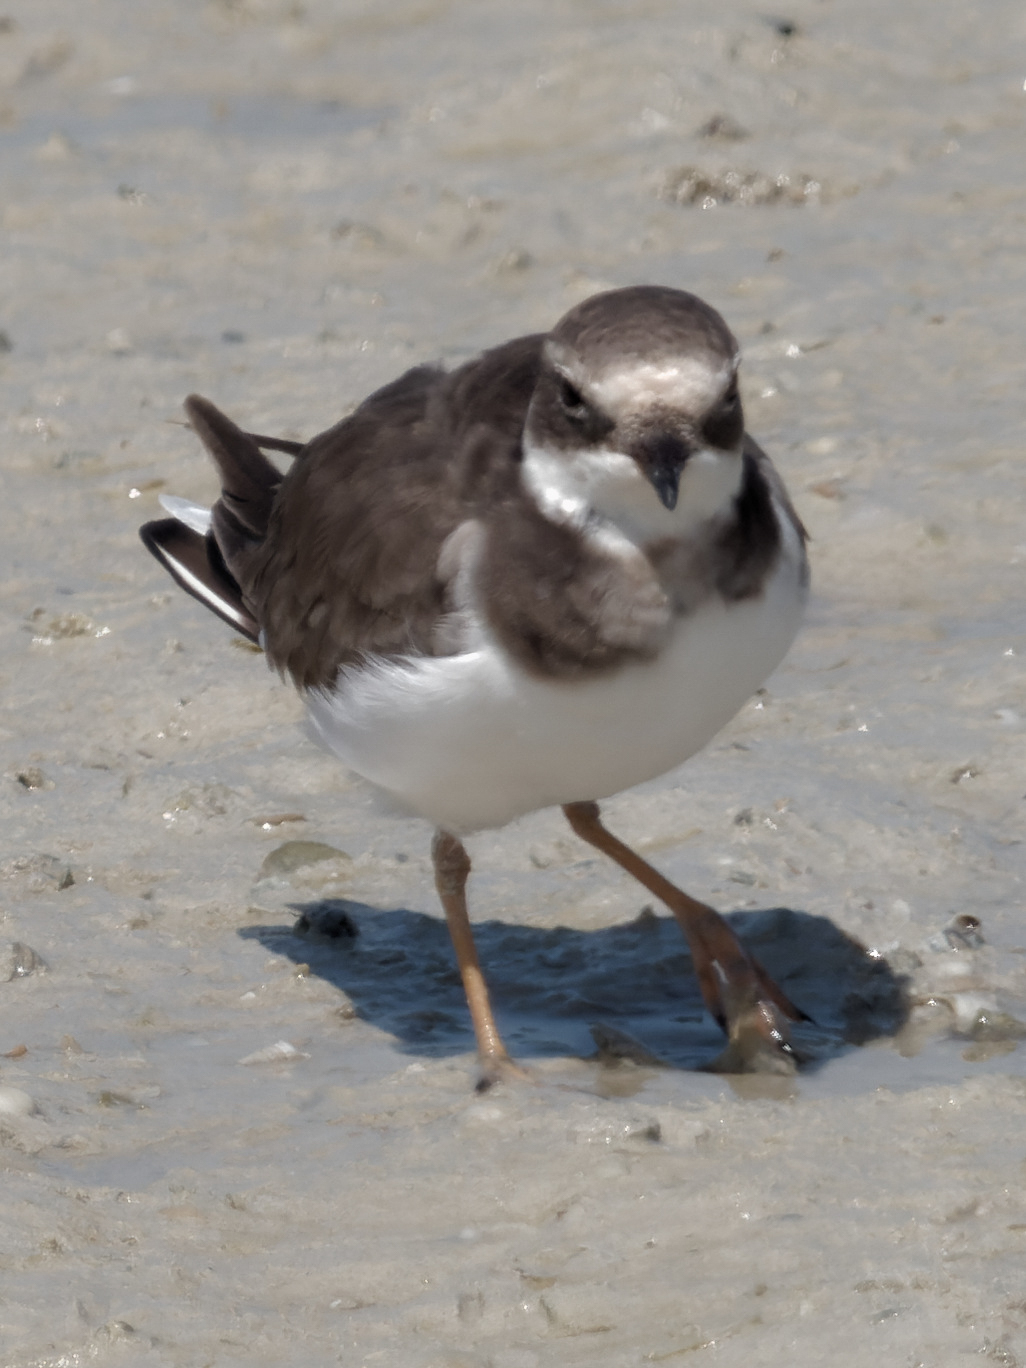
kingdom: Animalia
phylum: Chordata
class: Aves
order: Charadriiformes
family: Charadriidae
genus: Charadrius
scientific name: Charadrius hiaticula
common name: Common ringed plover
